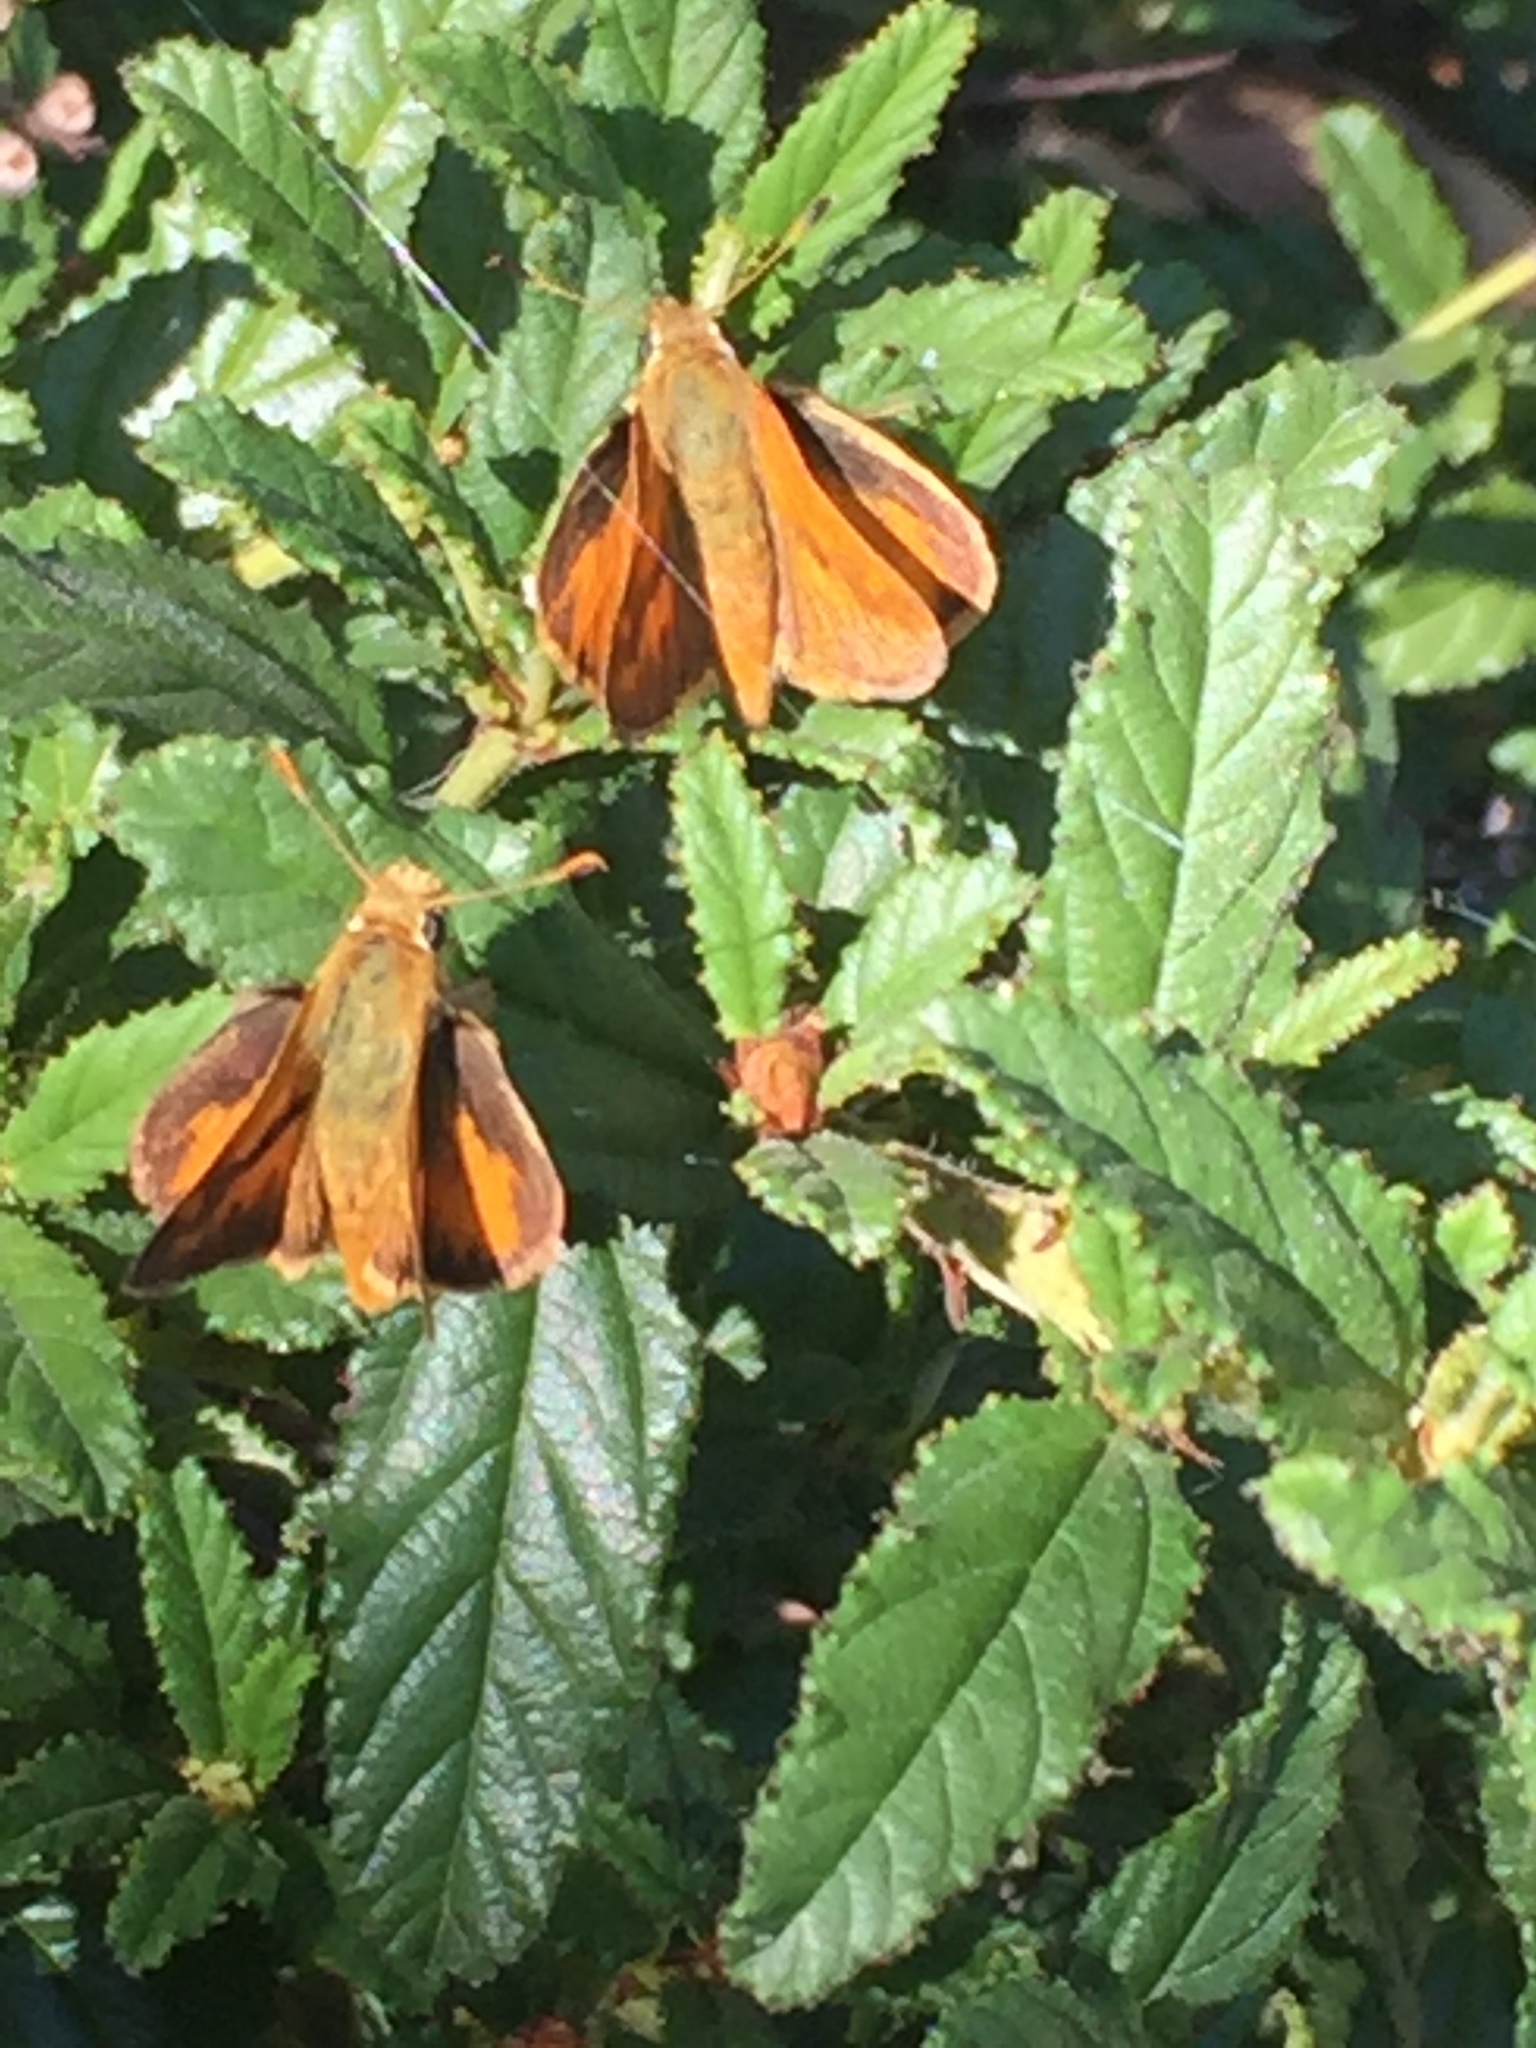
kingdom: Animalia
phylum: Arthropoda
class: Insecta
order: Lepidoptera
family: Hesperiidae
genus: Ochlodes
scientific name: Ochlodes sylvanoides
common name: Woodland skipper
